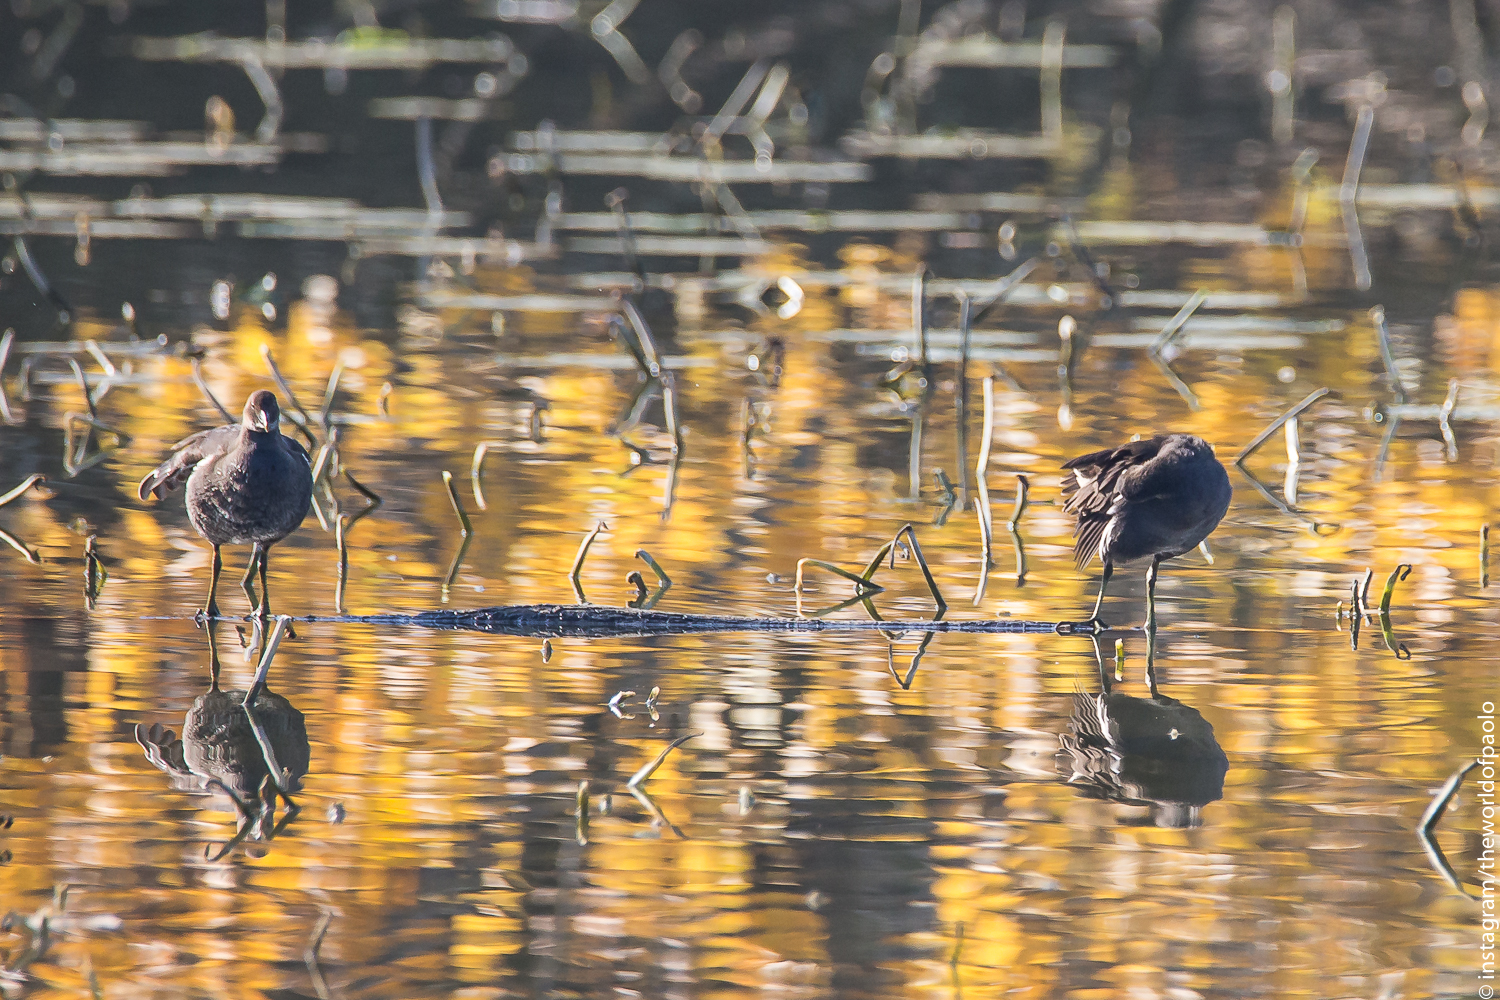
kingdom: Animalia
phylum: Chordata
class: Aves
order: Gruiformes
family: Rallidae
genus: Gallinula
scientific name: Gallinula chloropus
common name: Common moorhen
